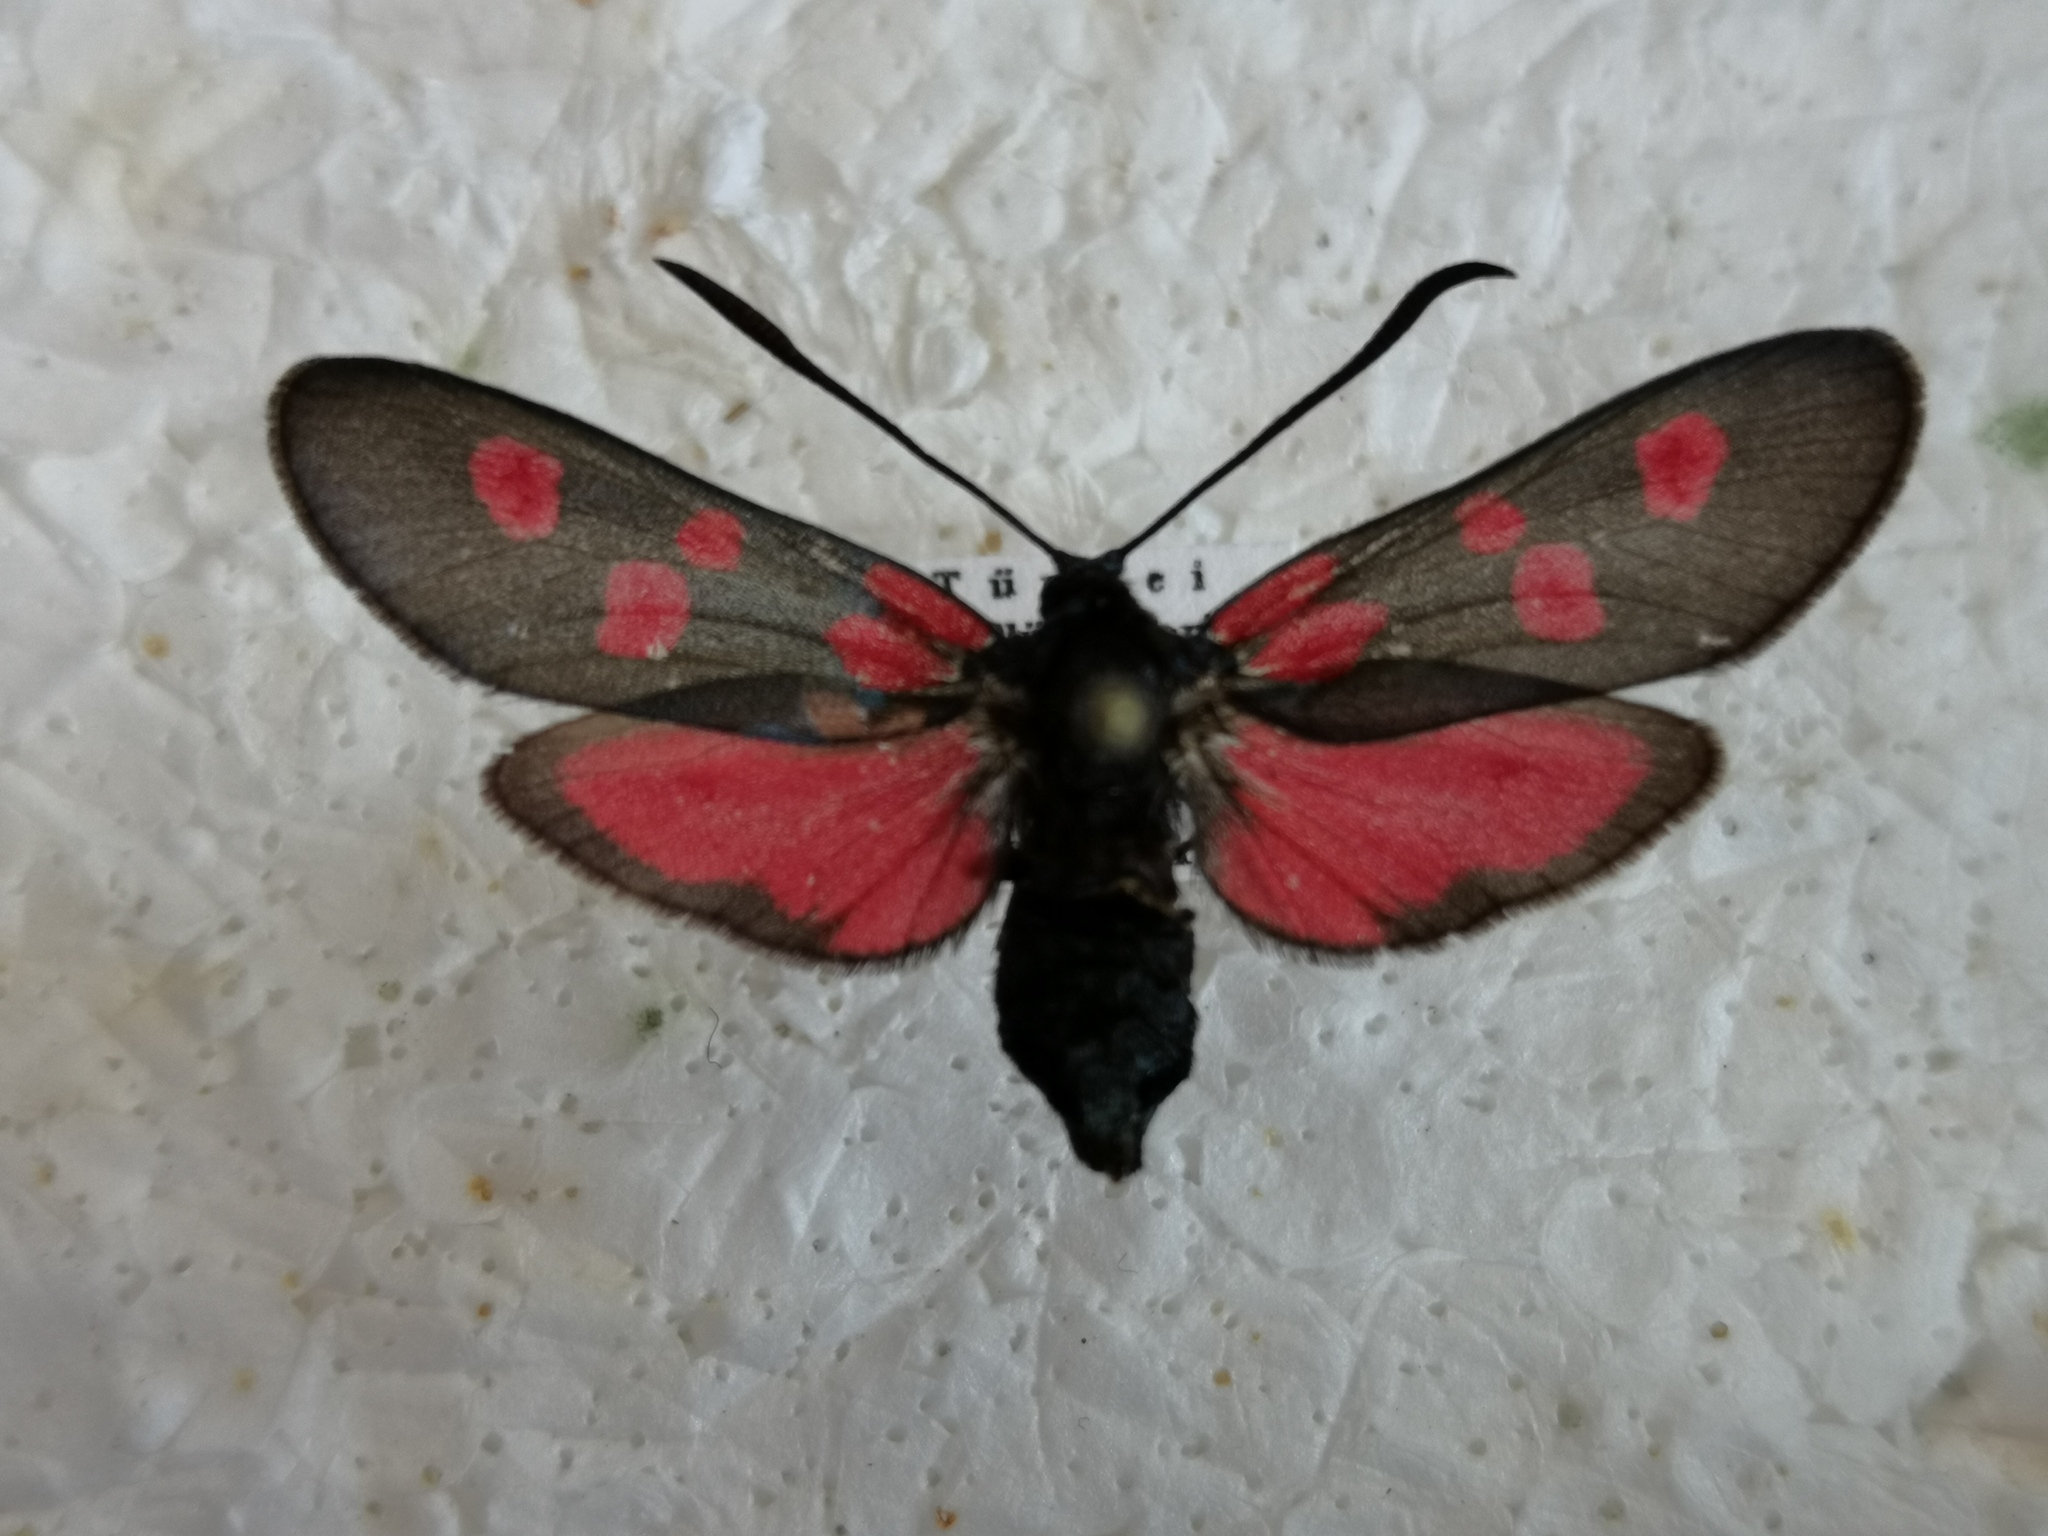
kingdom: Animalia
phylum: Arthropoda
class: Insecta
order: Lepidoptera
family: Zygaenidae
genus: Zygaena
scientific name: Zygaena lonicerae
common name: Narrow-bordered five-spot burnet
